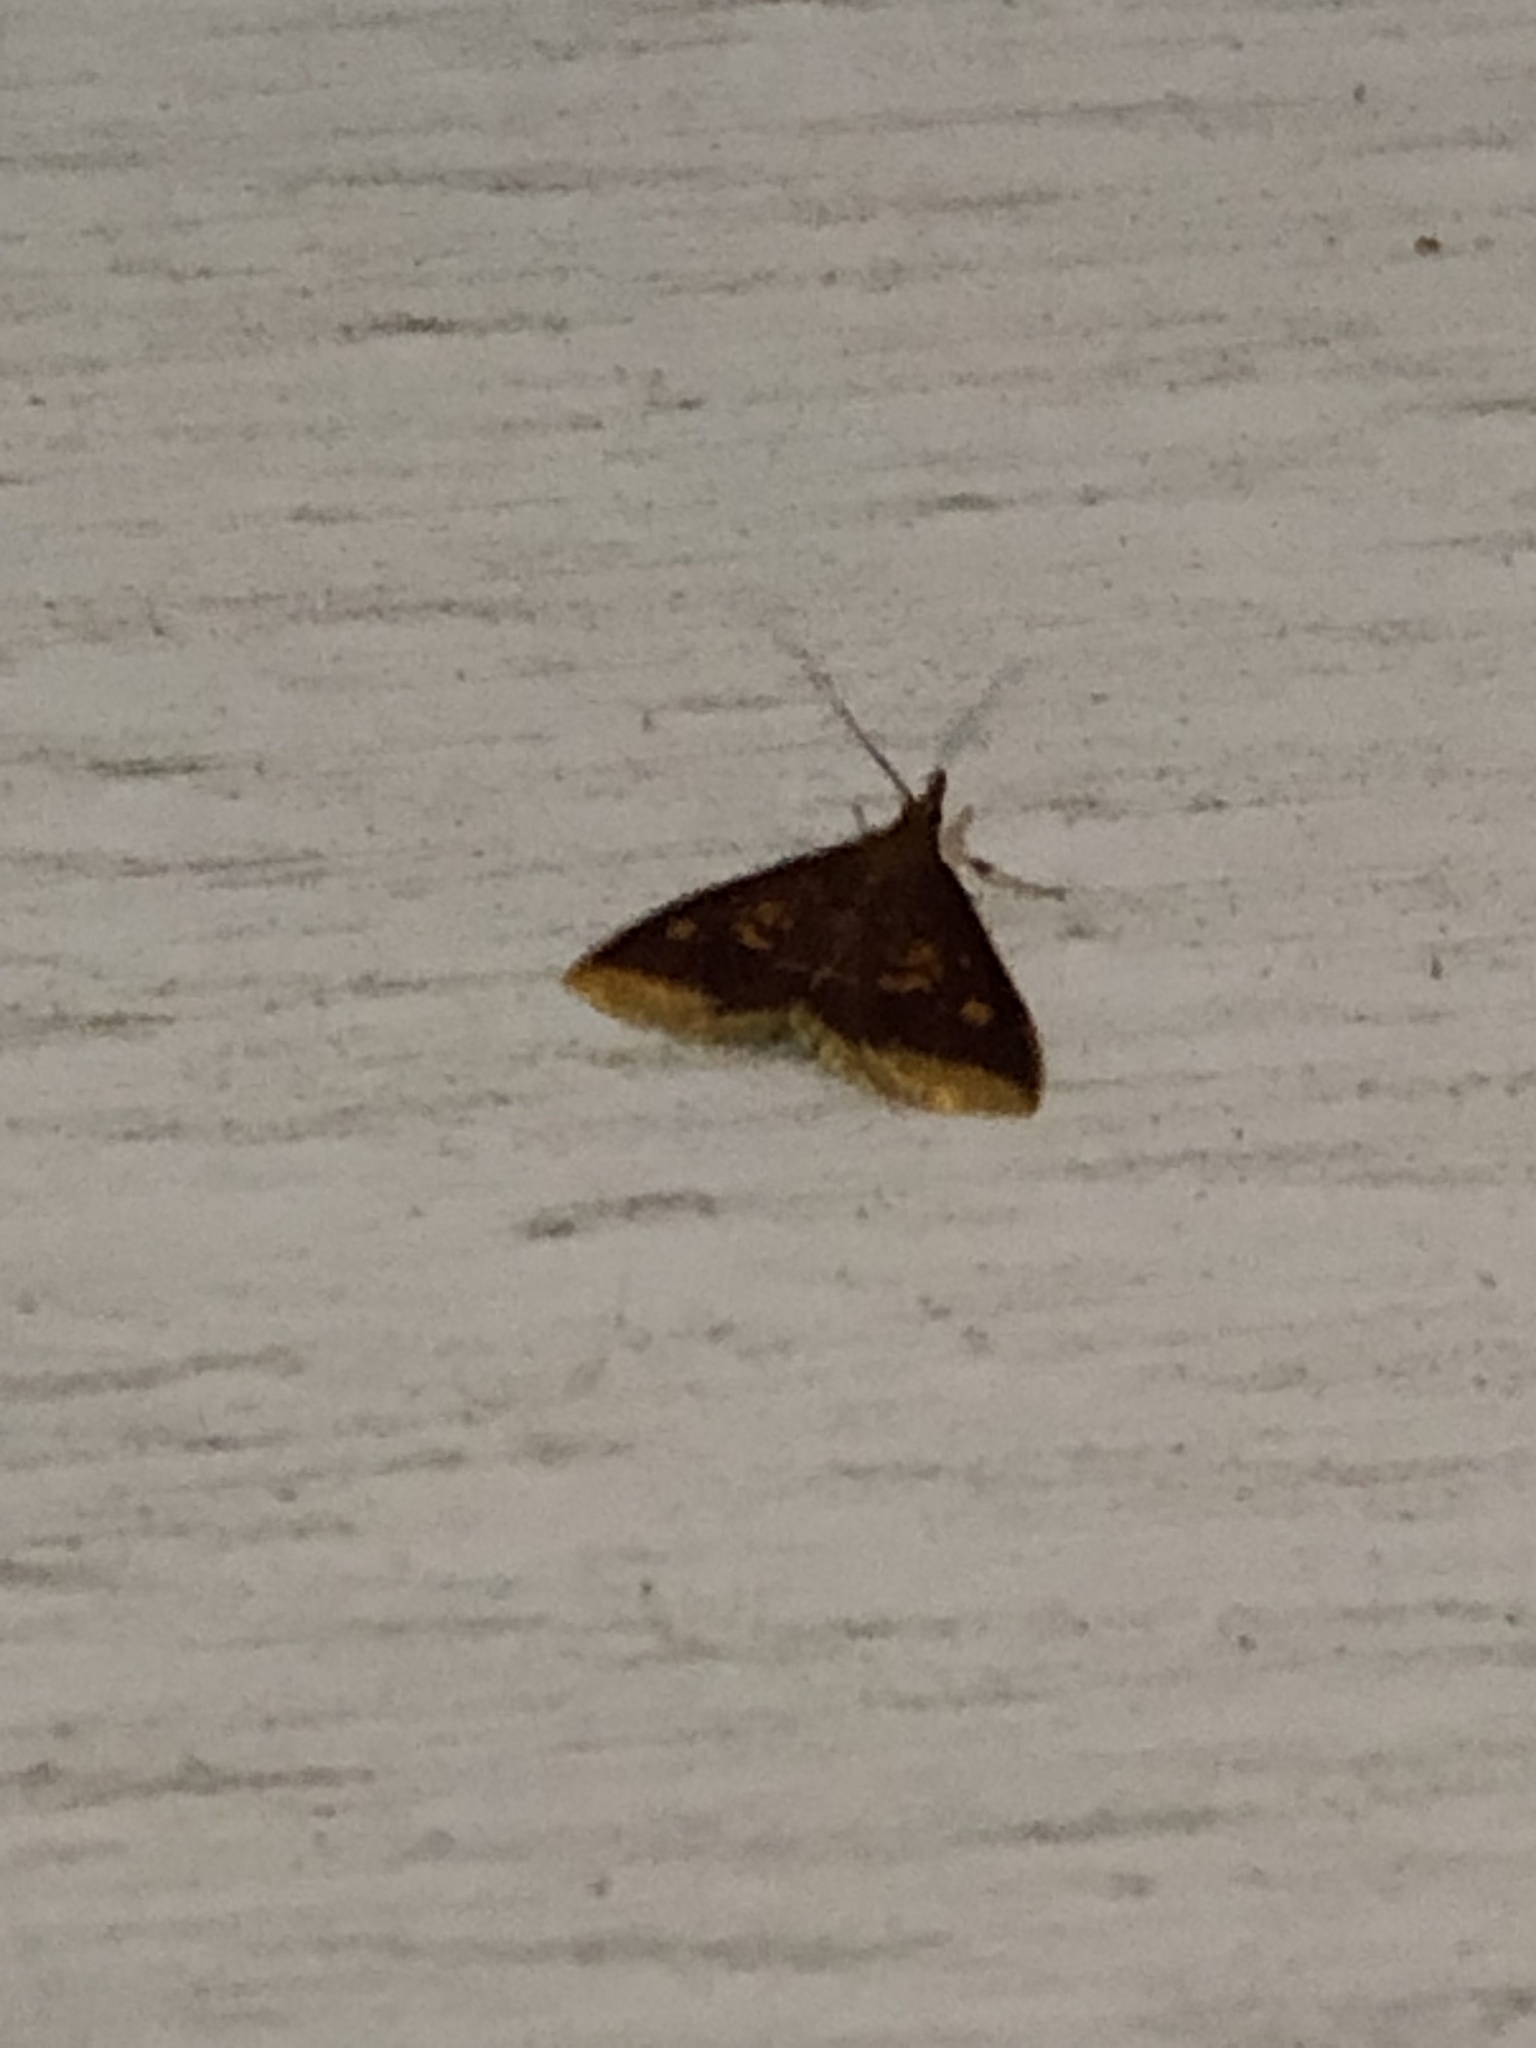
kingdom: Animalia
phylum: Arthropoda
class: Insecta
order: Lepidoptera
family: Crambidae
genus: Pyrausta
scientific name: Pyrausta acrionalis
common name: Mint-loving pyrausta moth
